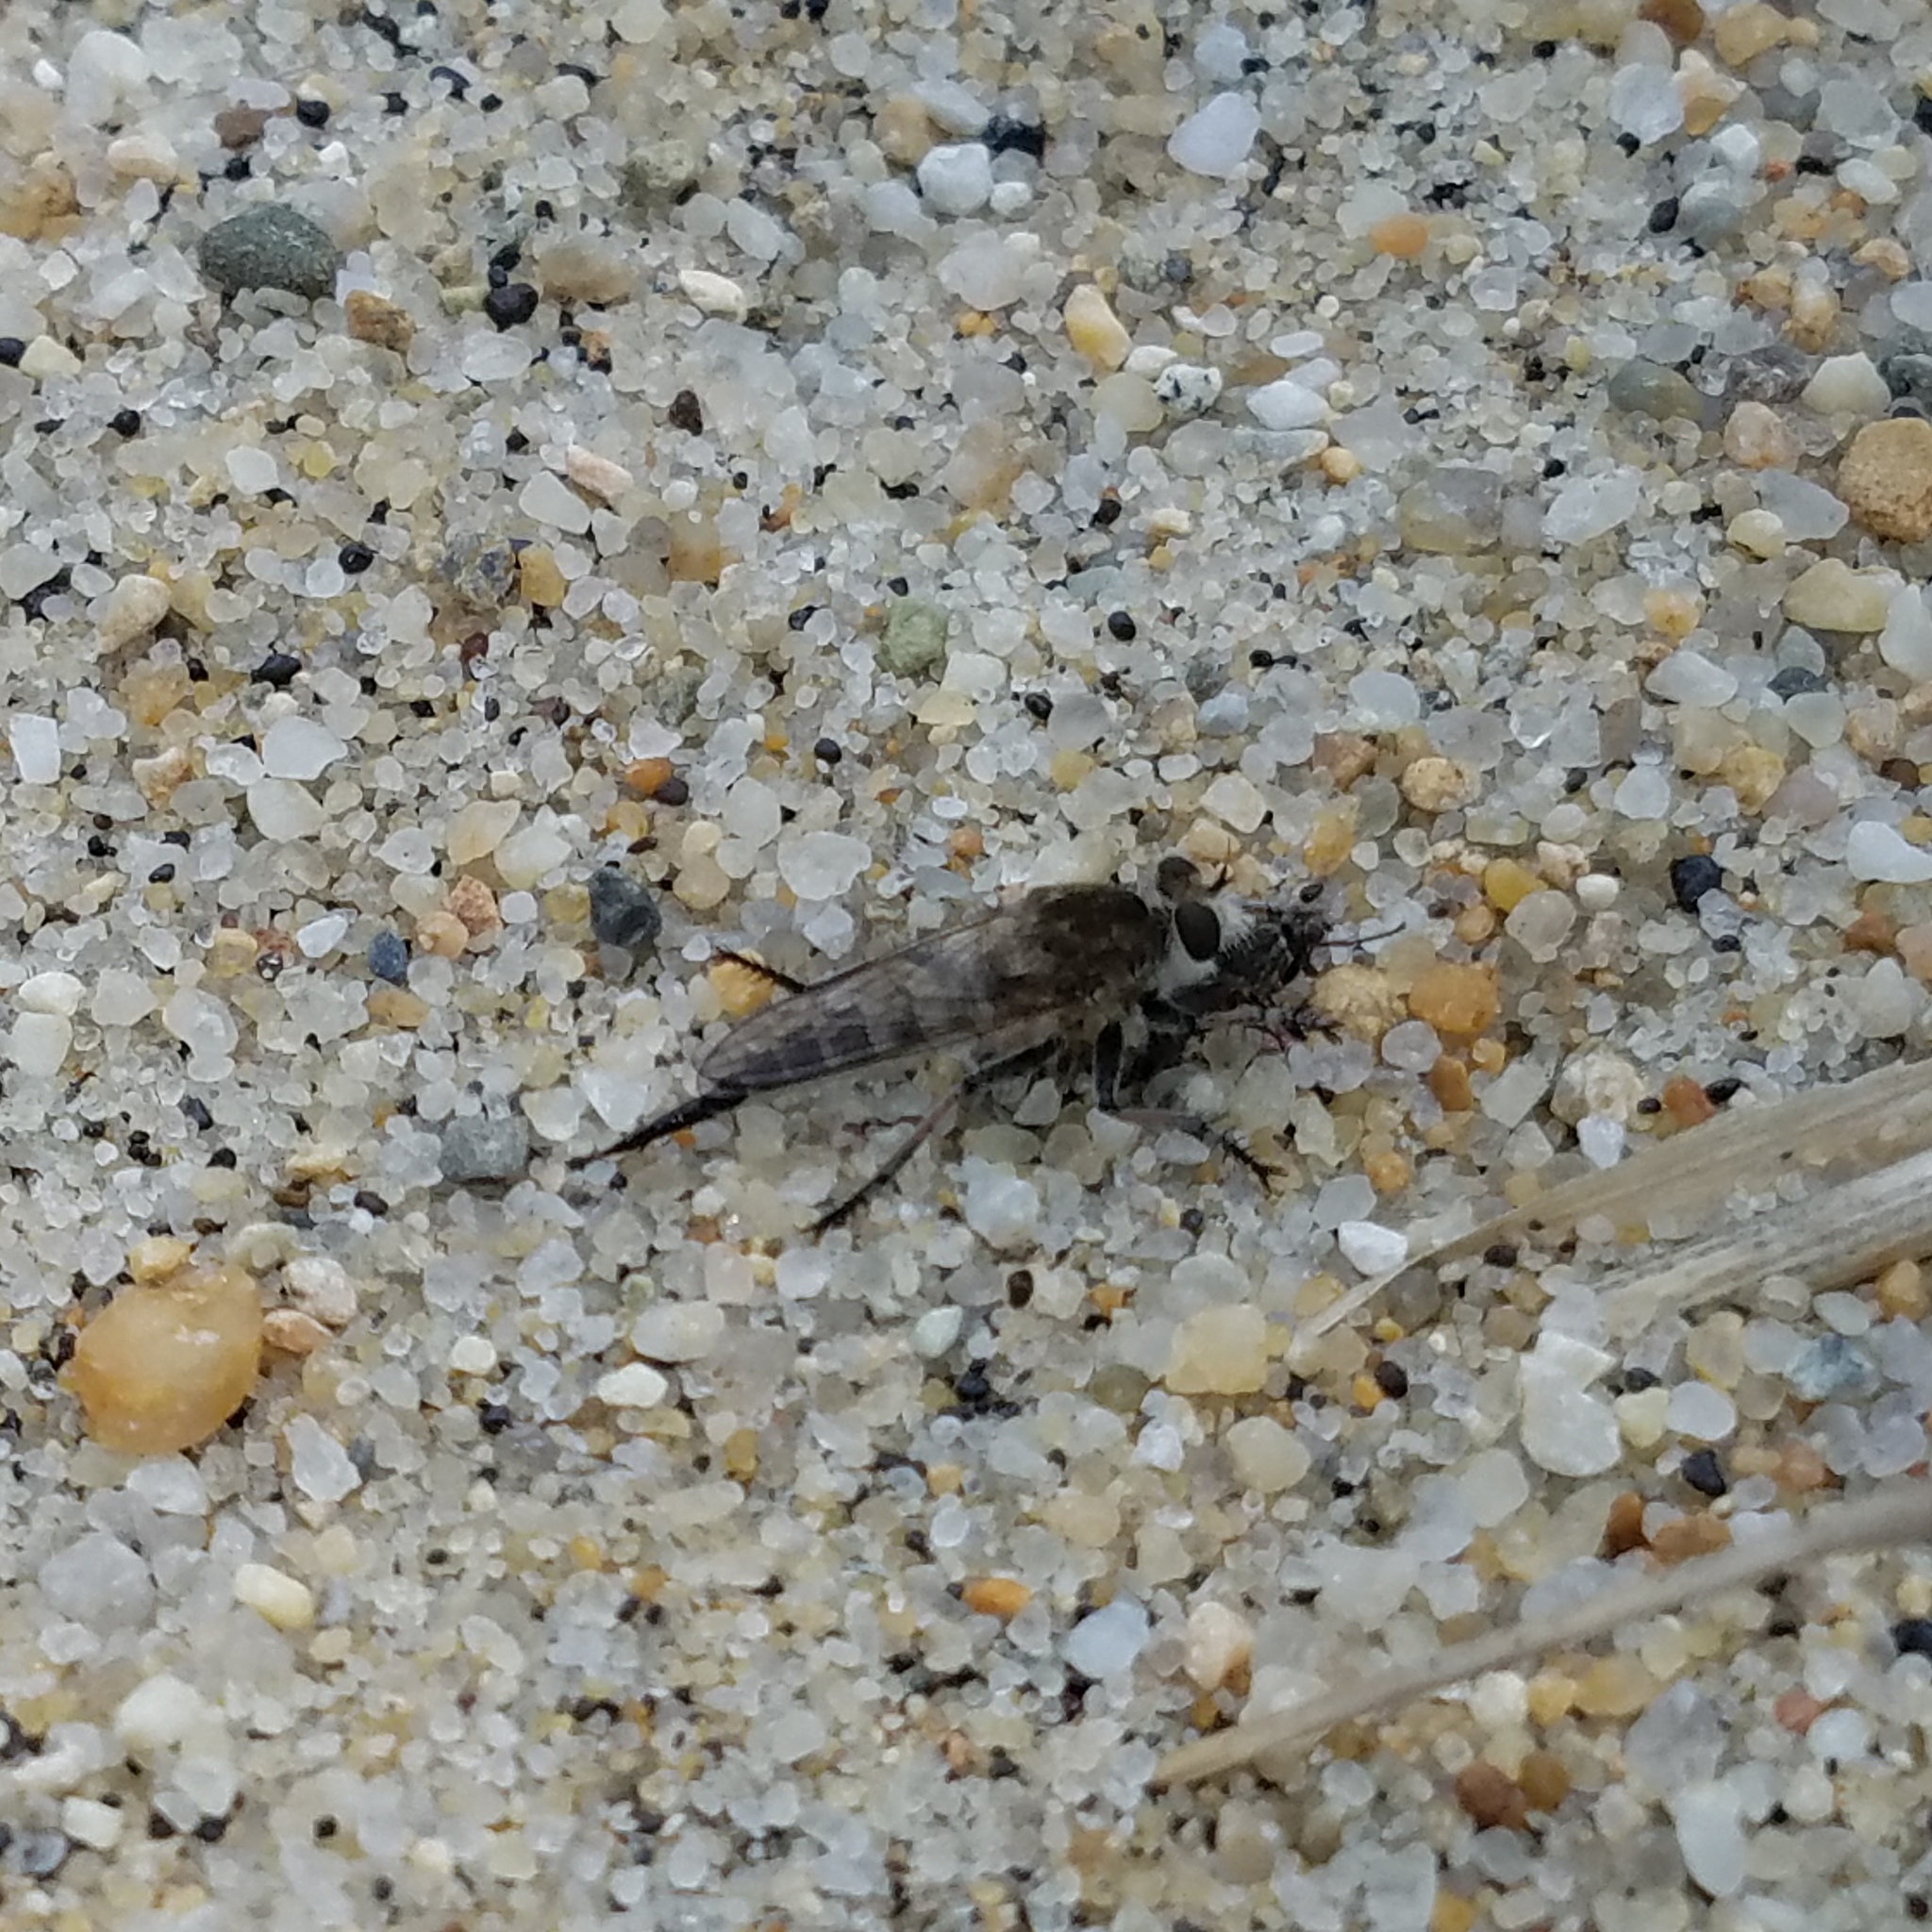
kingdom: Animalia
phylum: Arthropoda
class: Insecta
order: Diptera
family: Asilidae
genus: Efferia
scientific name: Efferia albibarbis
